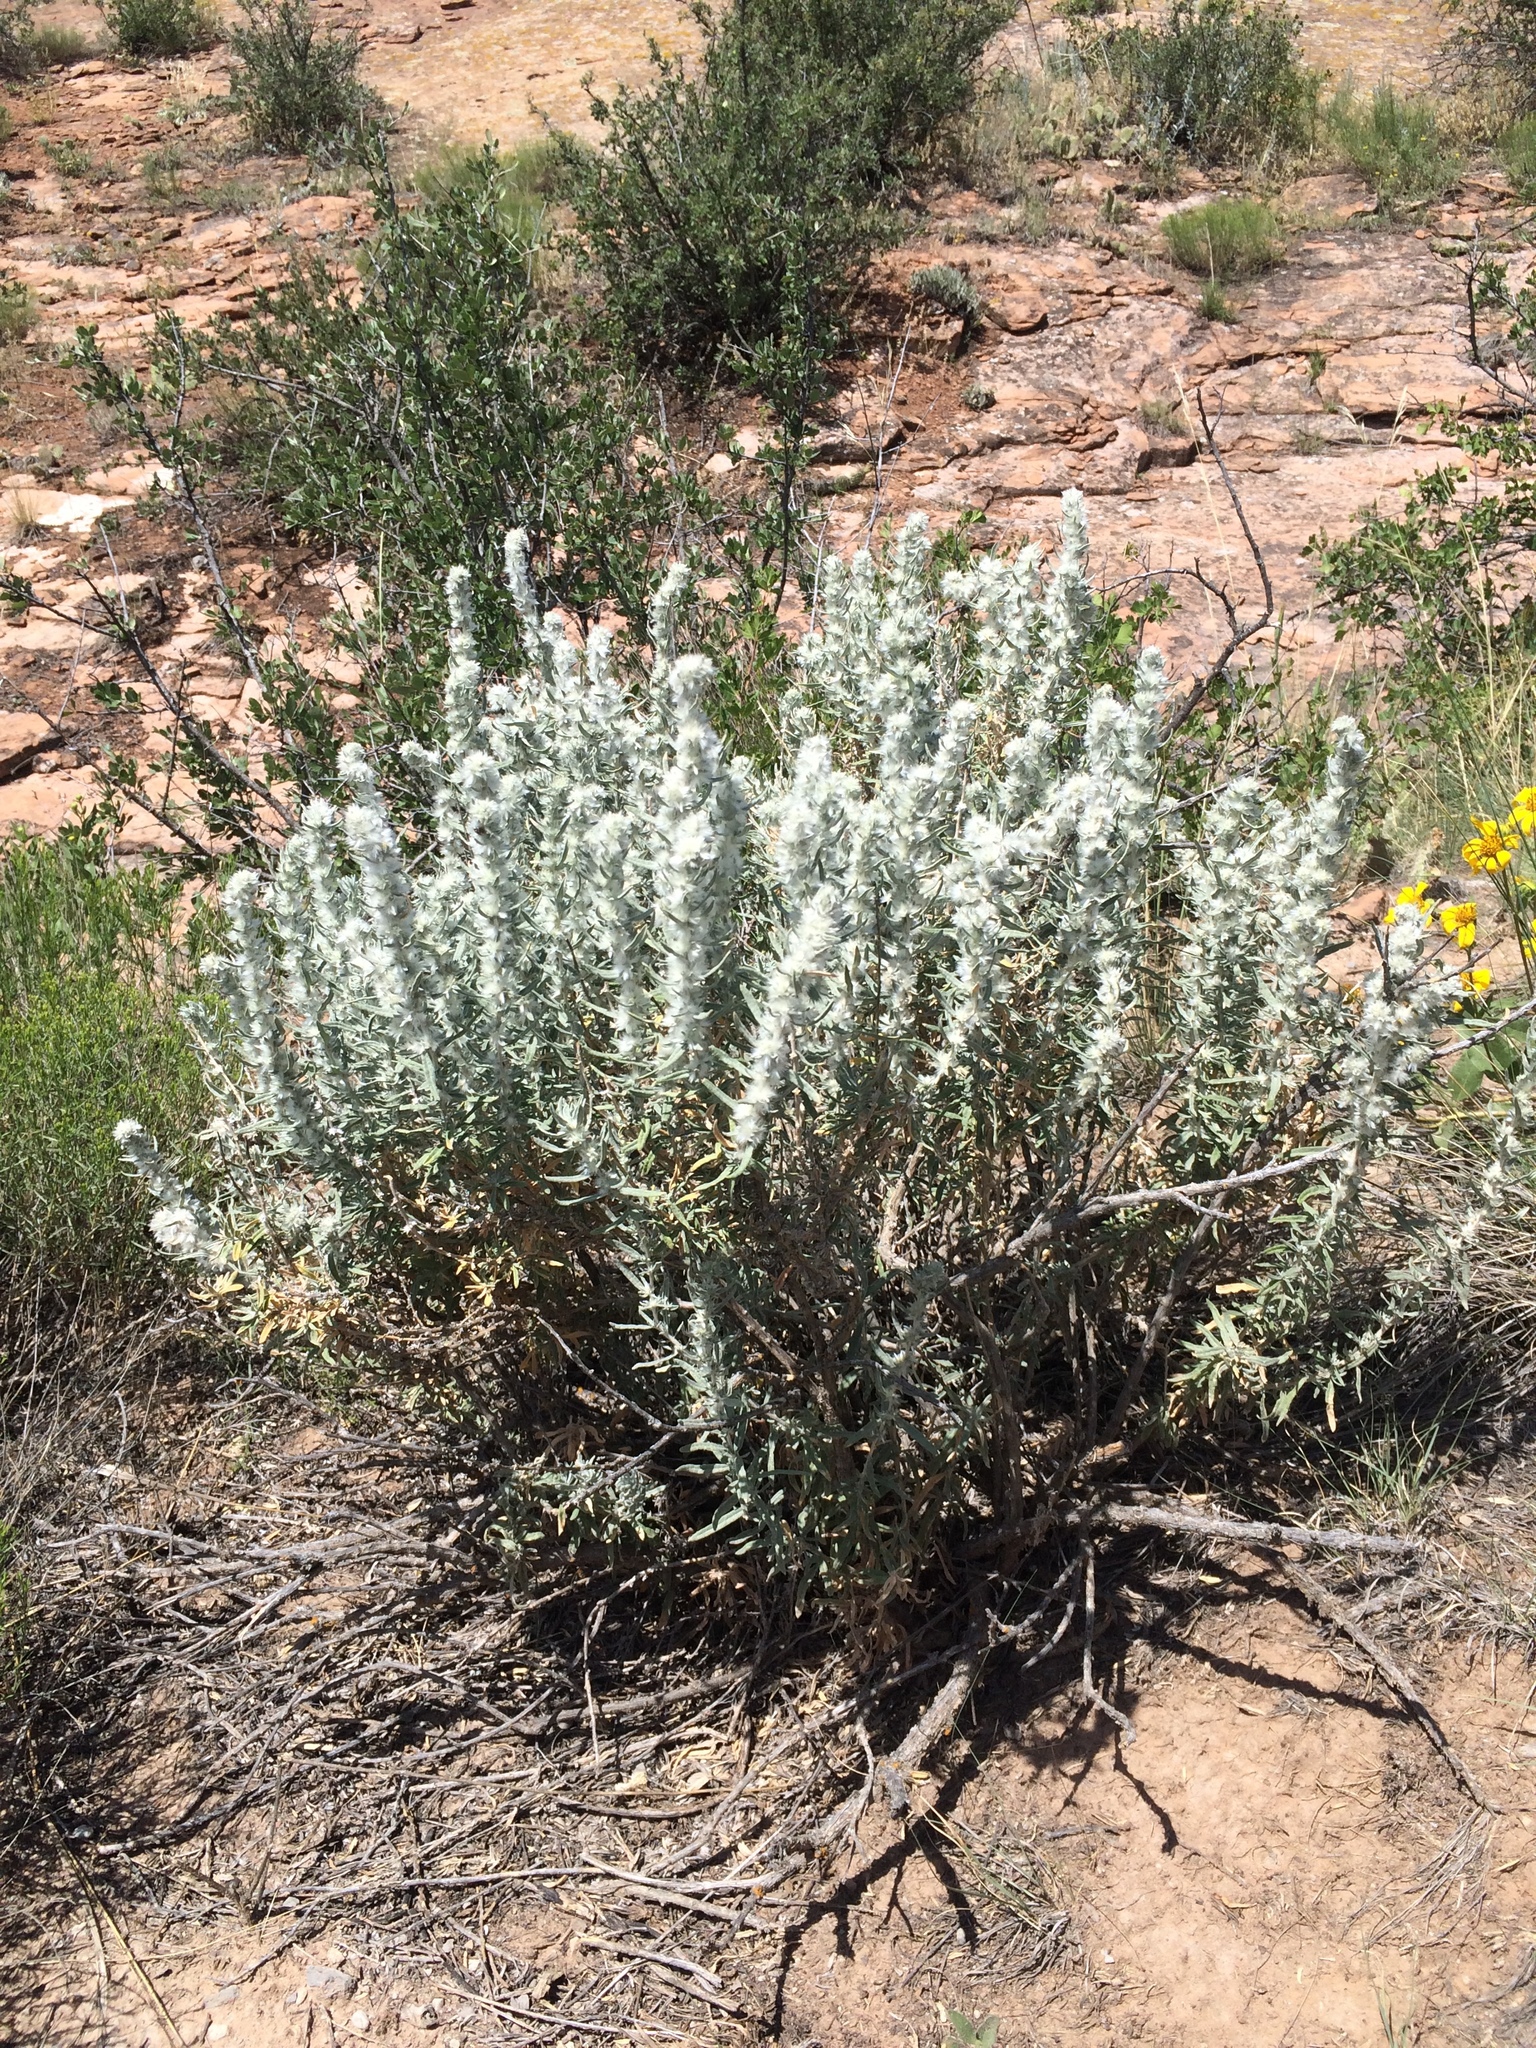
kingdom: Plantae
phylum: Tracheophyta
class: Magnoliopsida
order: Caryophyllales
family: Amaranthaceae
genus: Krascheninnikovia
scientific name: Krascheninnikovia lanata
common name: Winterfat
